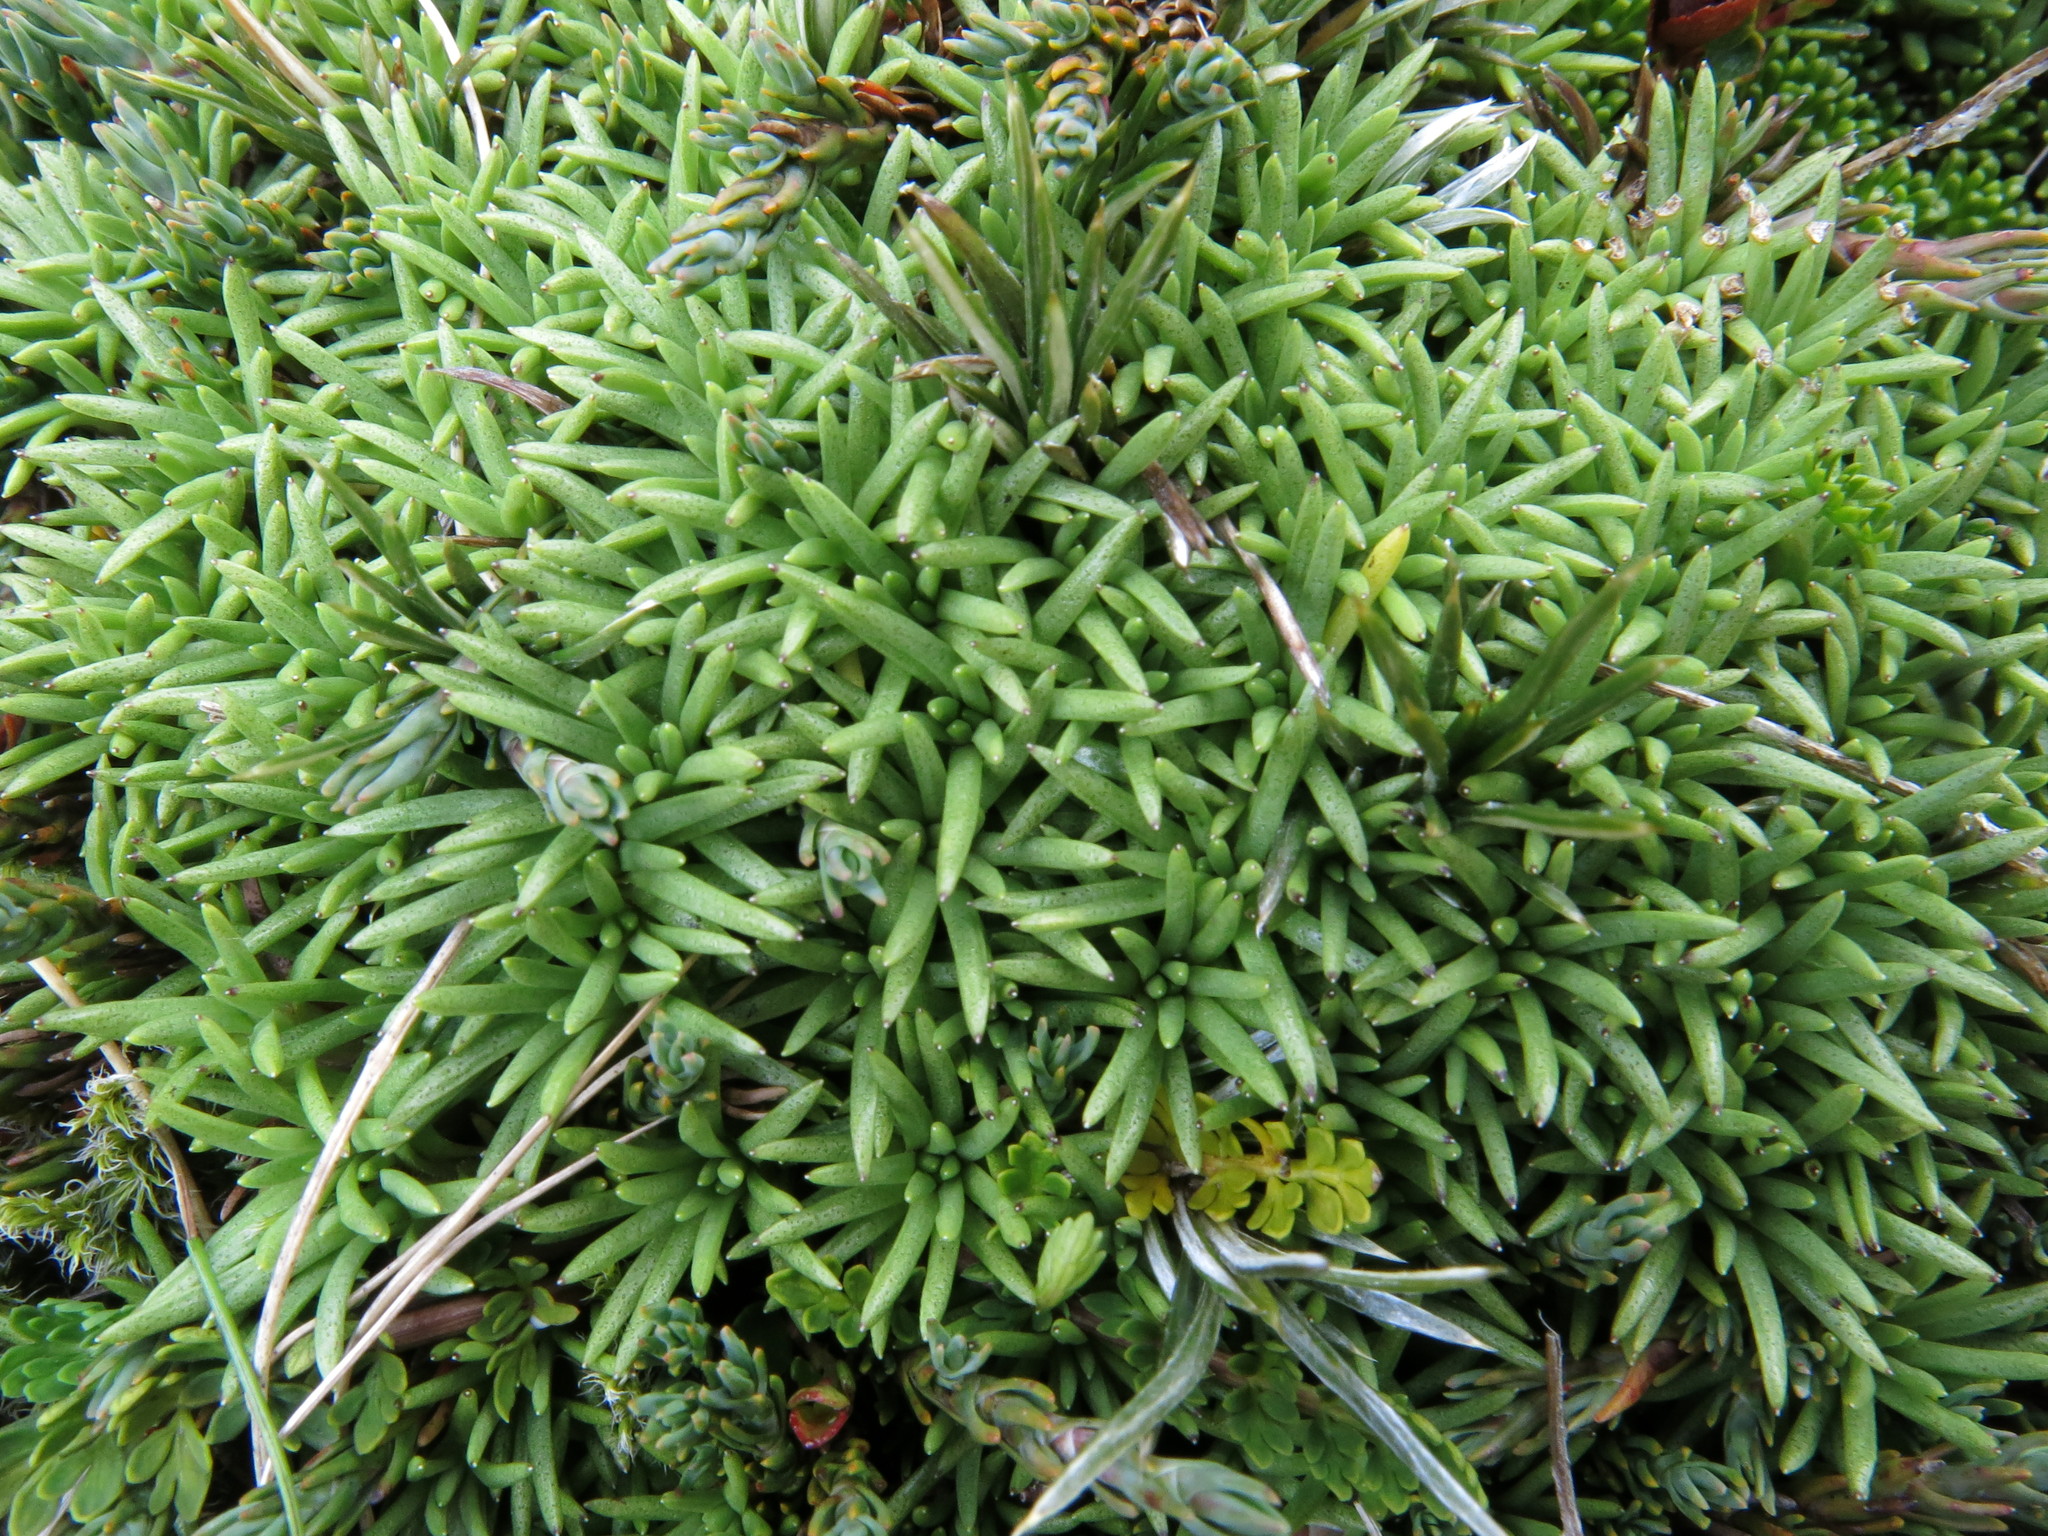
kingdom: Plantae
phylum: Tracheophyta
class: Magnoliopsida
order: Asterales
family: Asteraceae
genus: Abrotanella
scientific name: Abrotanella inconspicua
